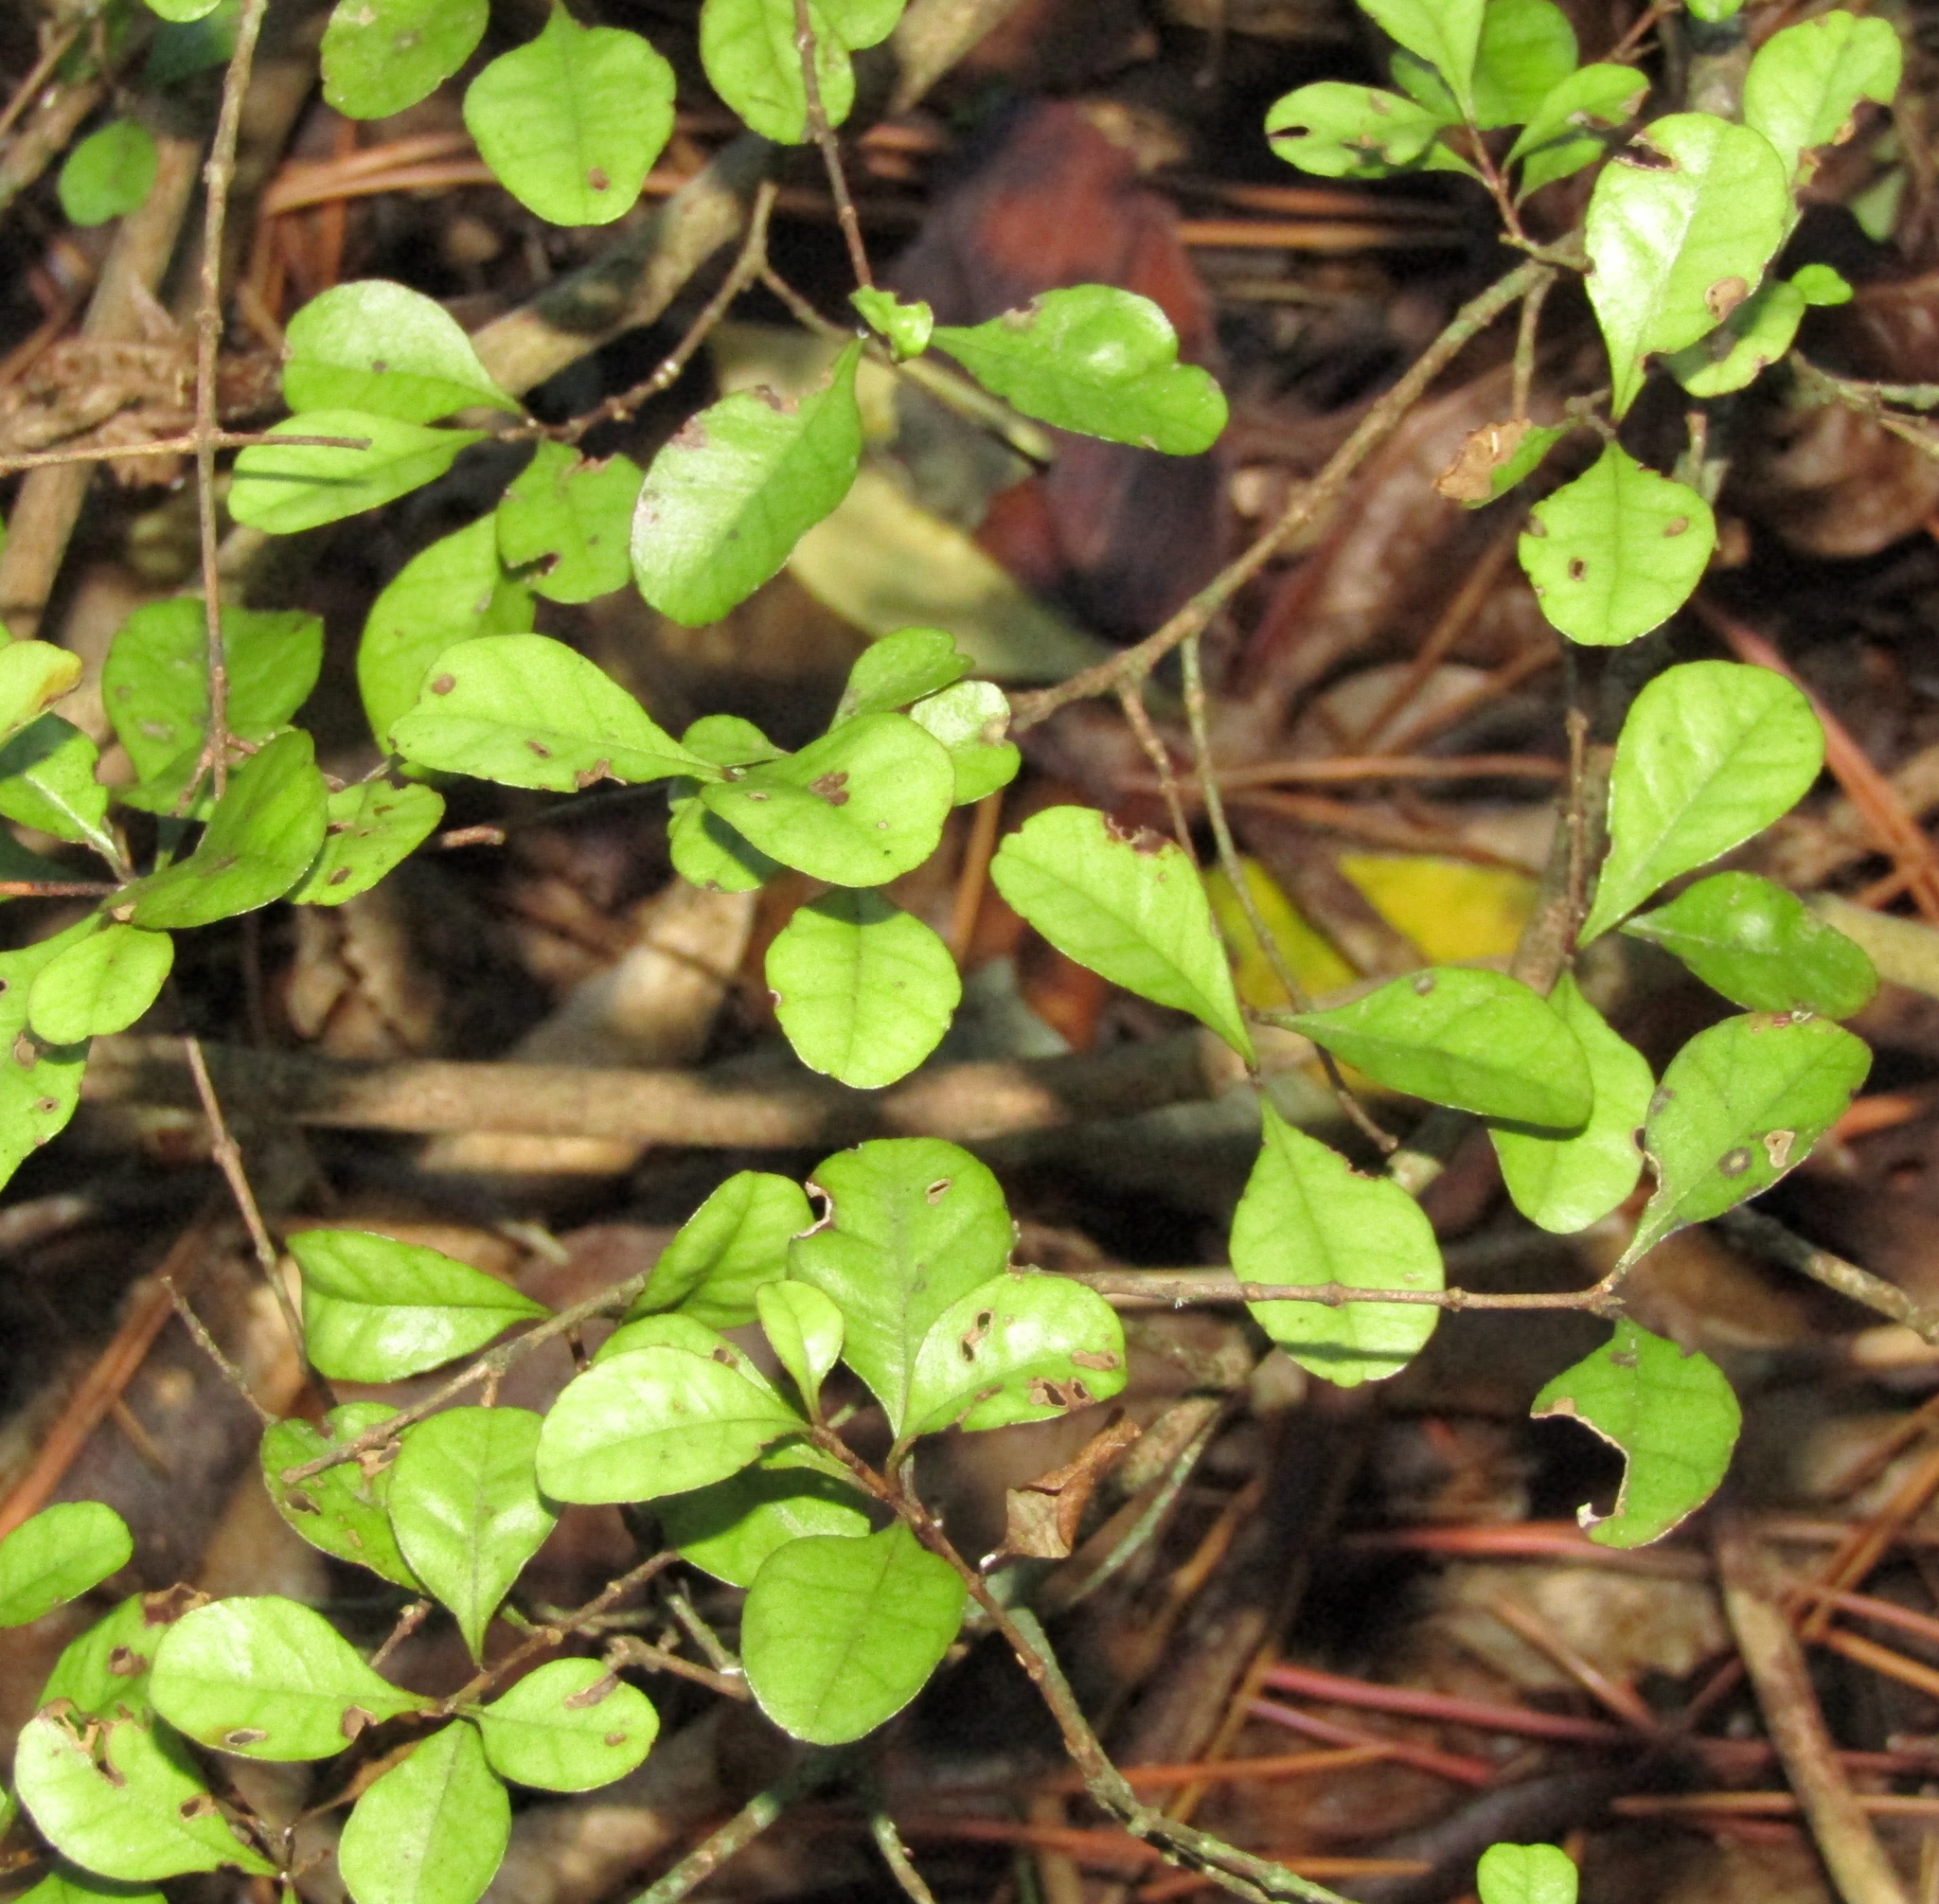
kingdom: Plantae
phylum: Tracheophyta
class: Magnoliopsida
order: Myrtales
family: Myrtaceae
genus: Lophomyrtus
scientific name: Lophomyrtus ralphii
